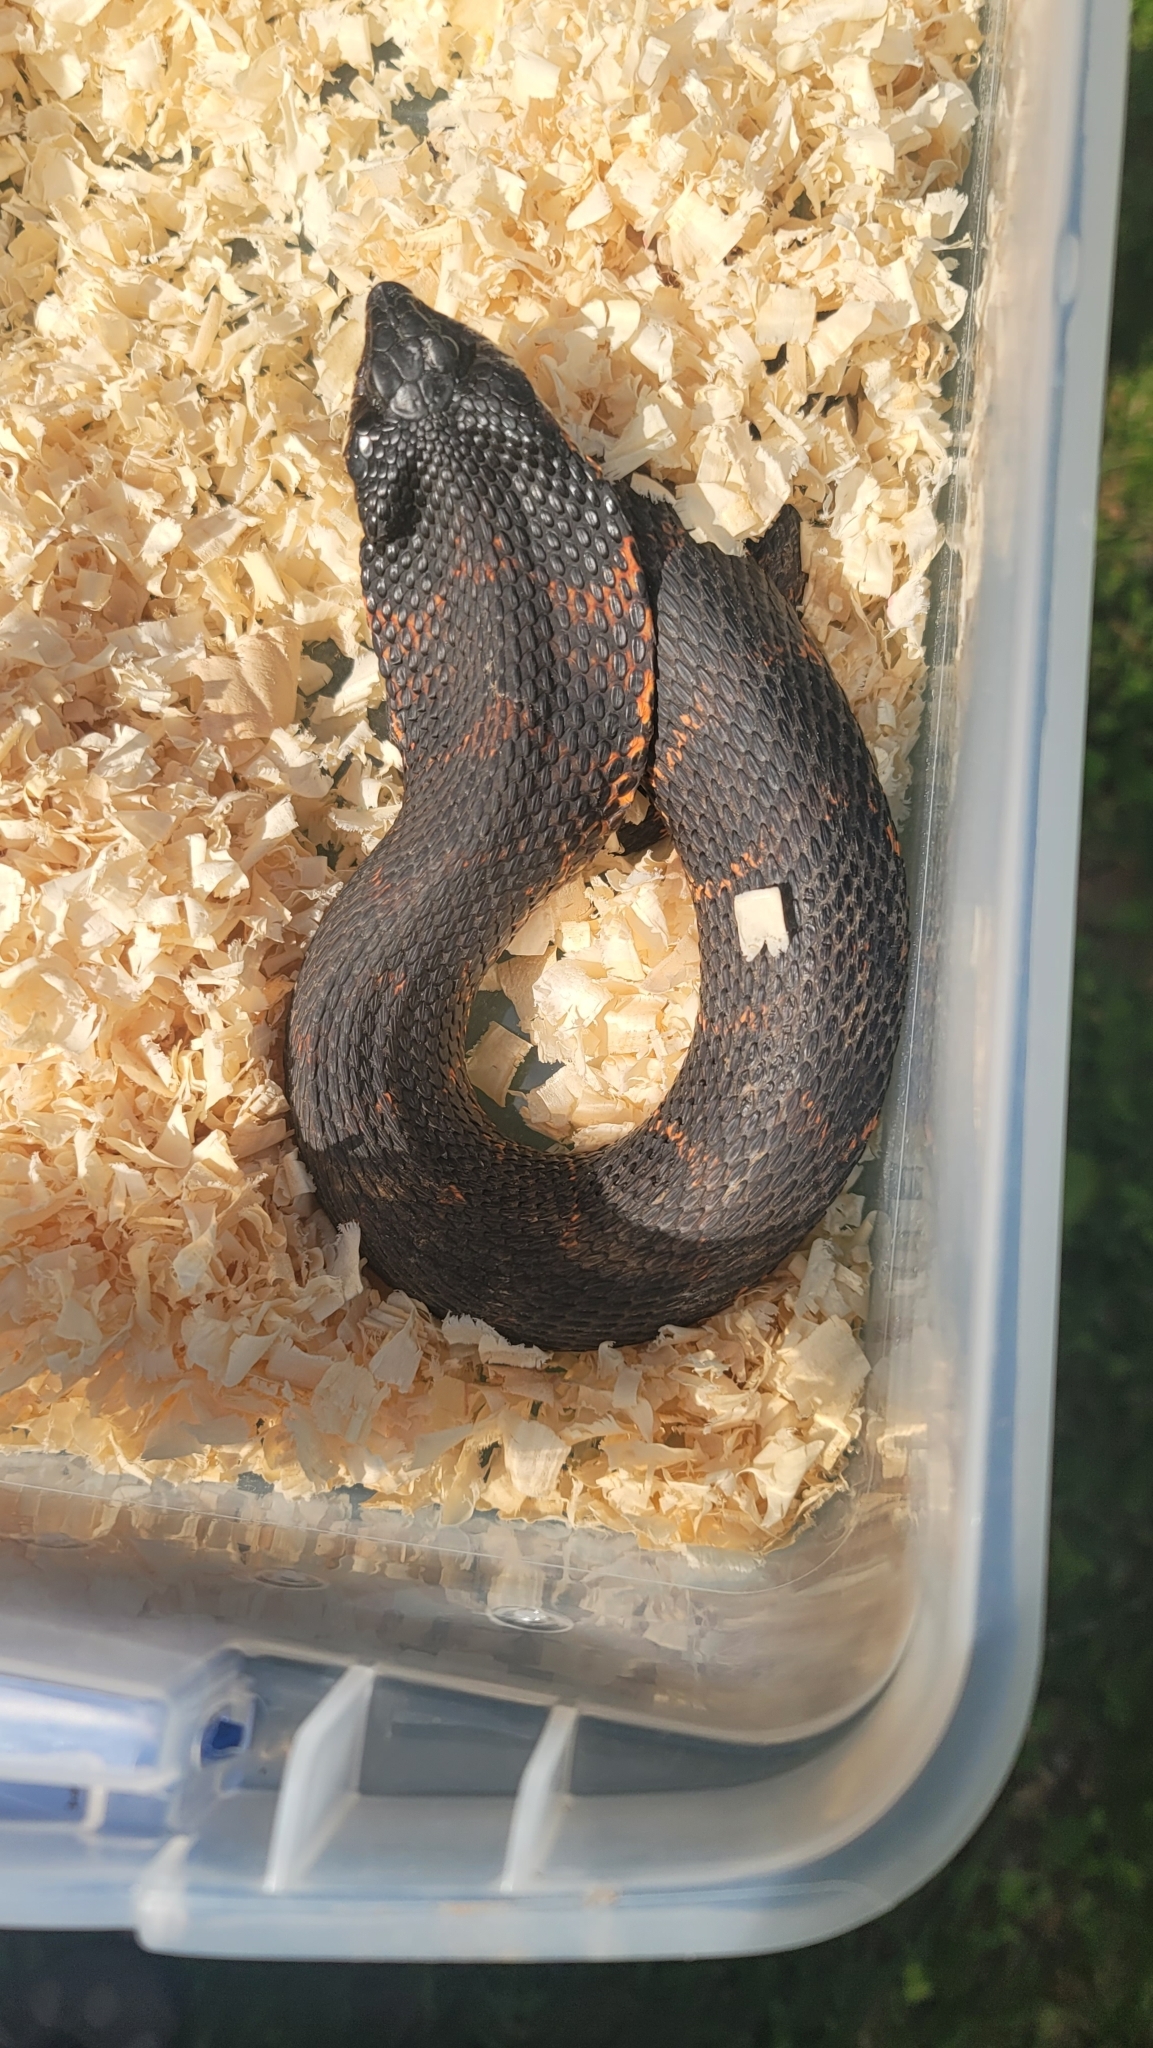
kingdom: Animalia
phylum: Chordata
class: Squamata
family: Colubridae
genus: Heterodon
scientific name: Heterodon platirhinos
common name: Eastern hognose snake
